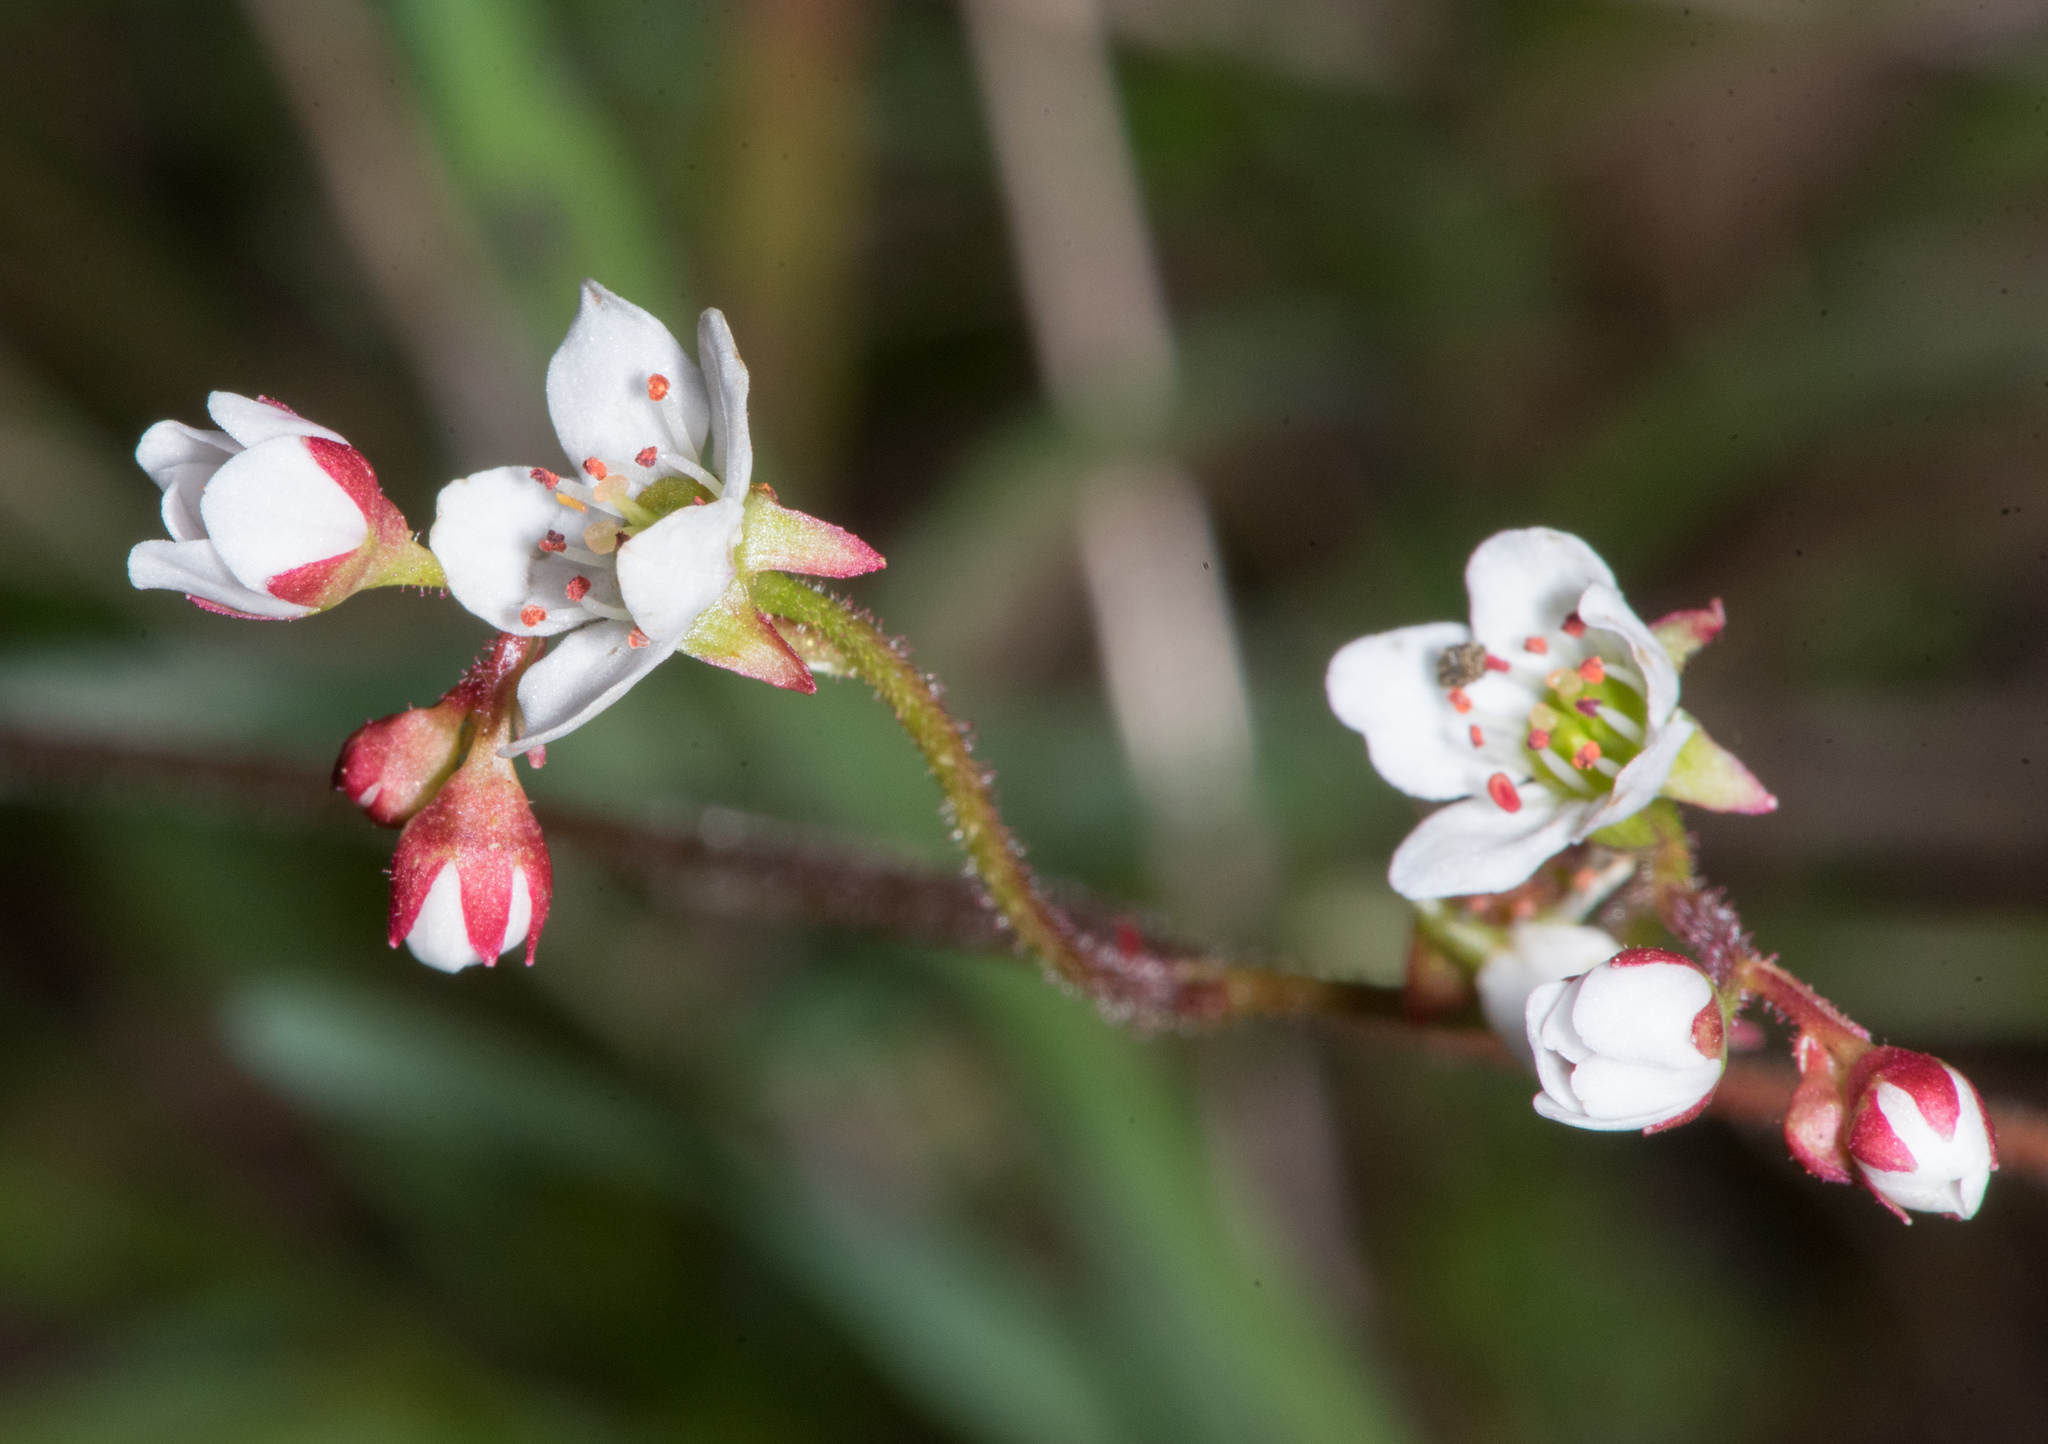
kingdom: Plantae
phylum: Tracheophyta
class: Magnoliopsida
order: Saxifragales
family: Saxifragaceae
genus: Micranthes
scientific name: Micranthes californica
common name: California saxifrage
